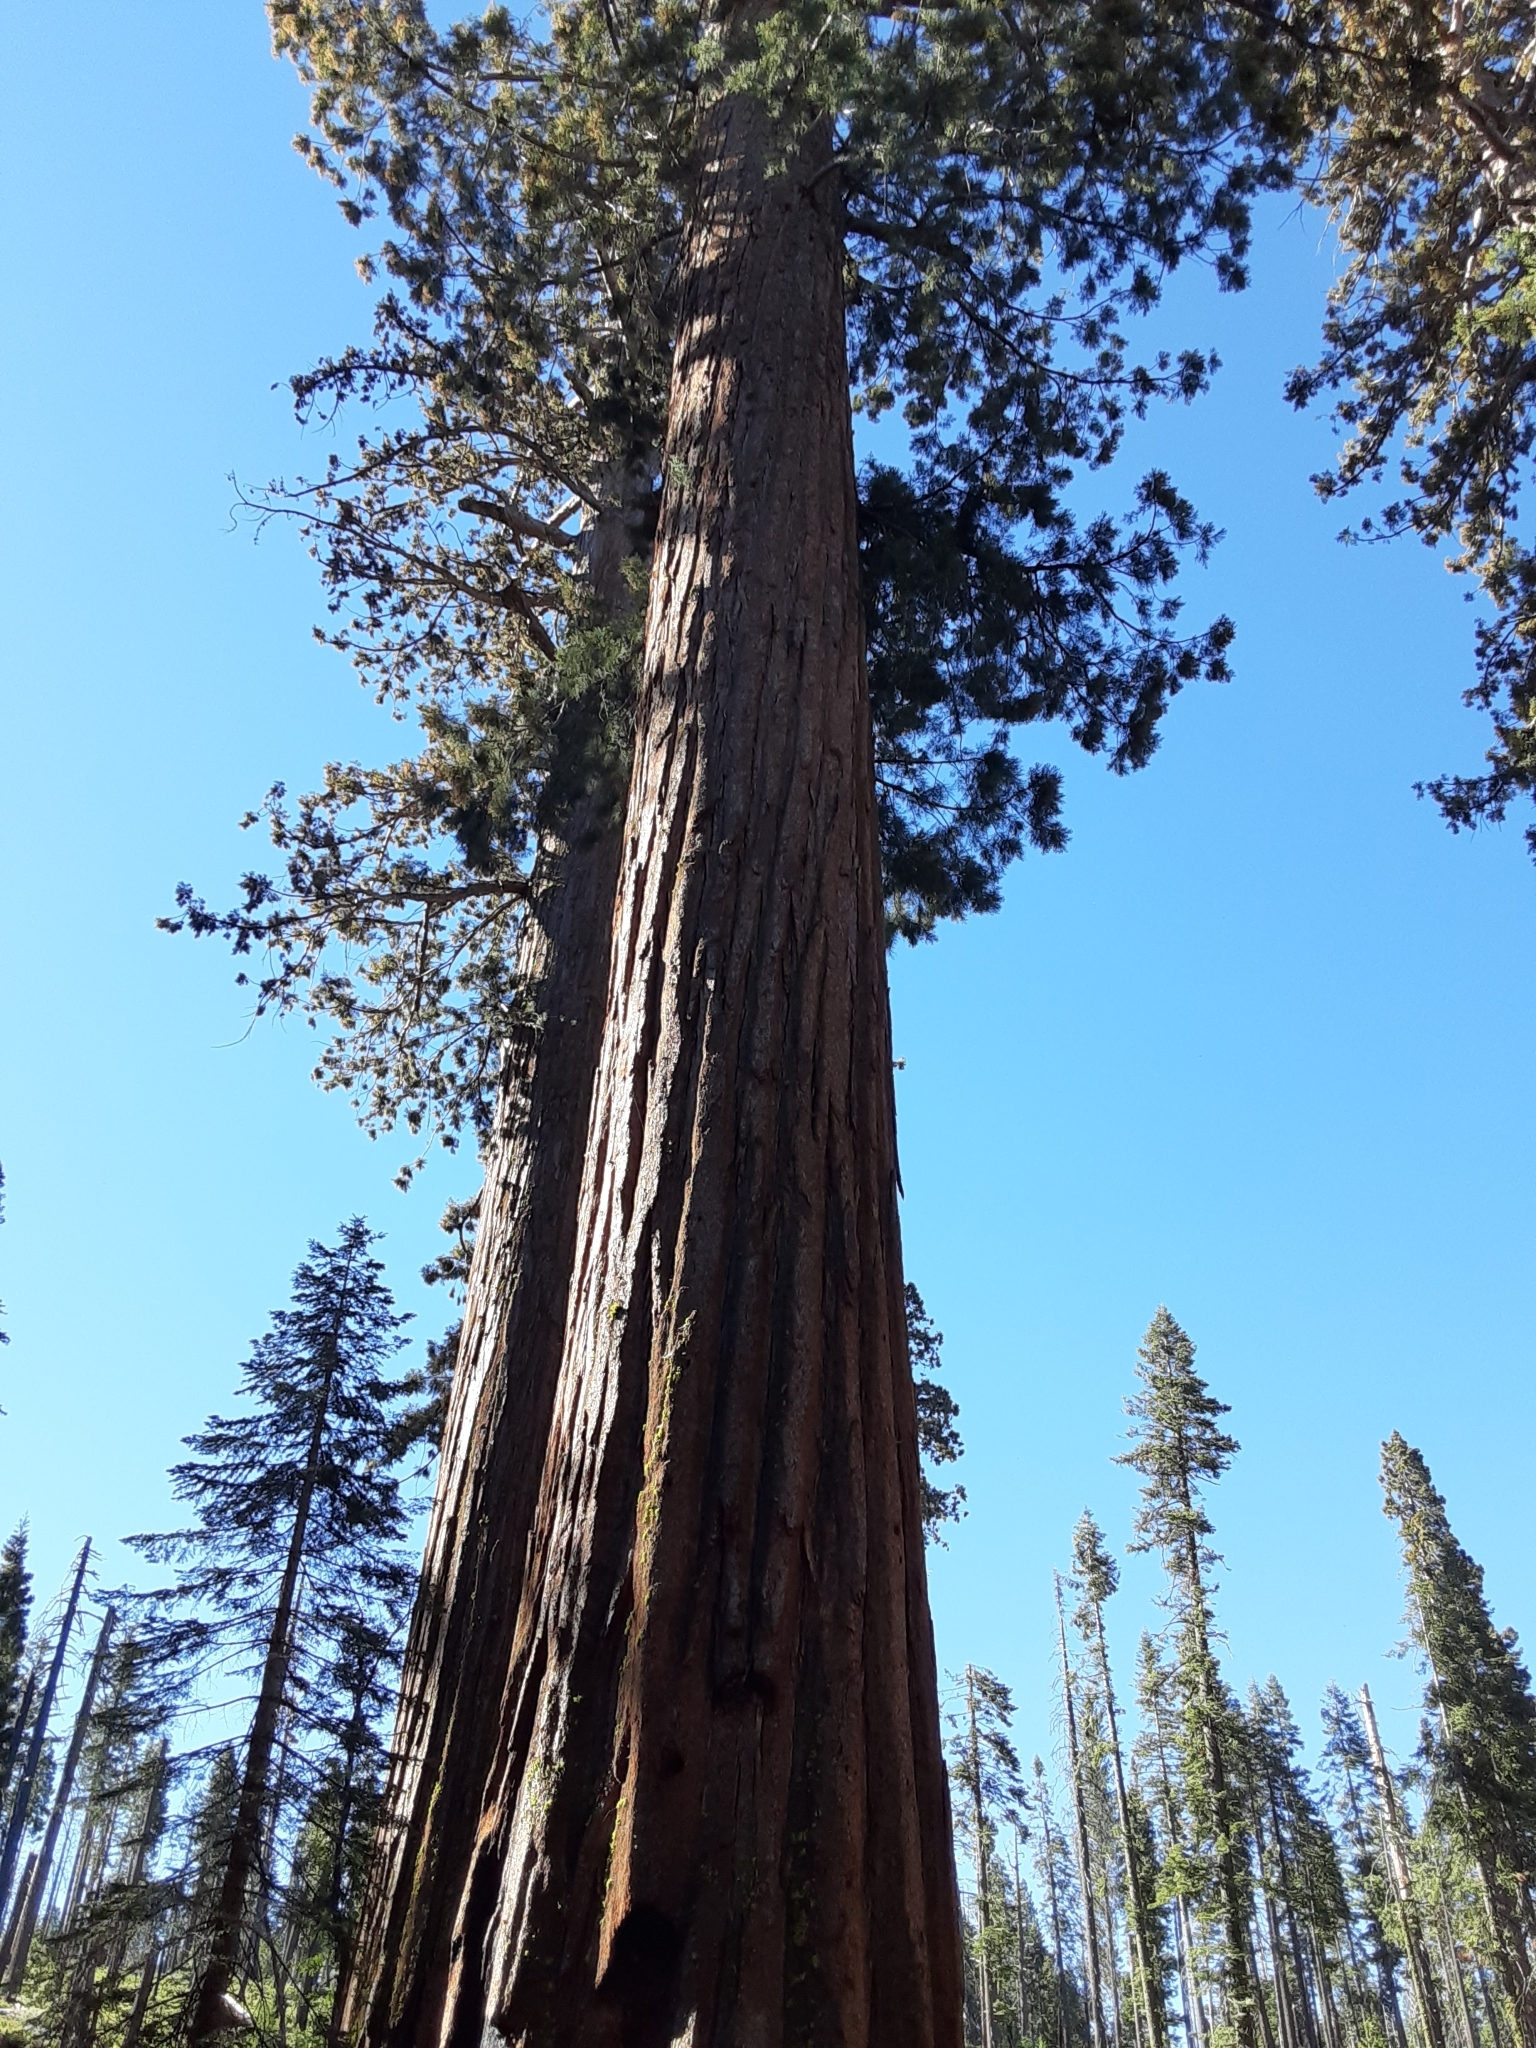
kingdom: Plantae
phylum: Tracheophyta
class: Pinopsida
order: Pinales
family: Cupressaceae
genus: Sequoiadendron
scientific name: Sequoiadendron giganteum
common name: Wellingtonia
